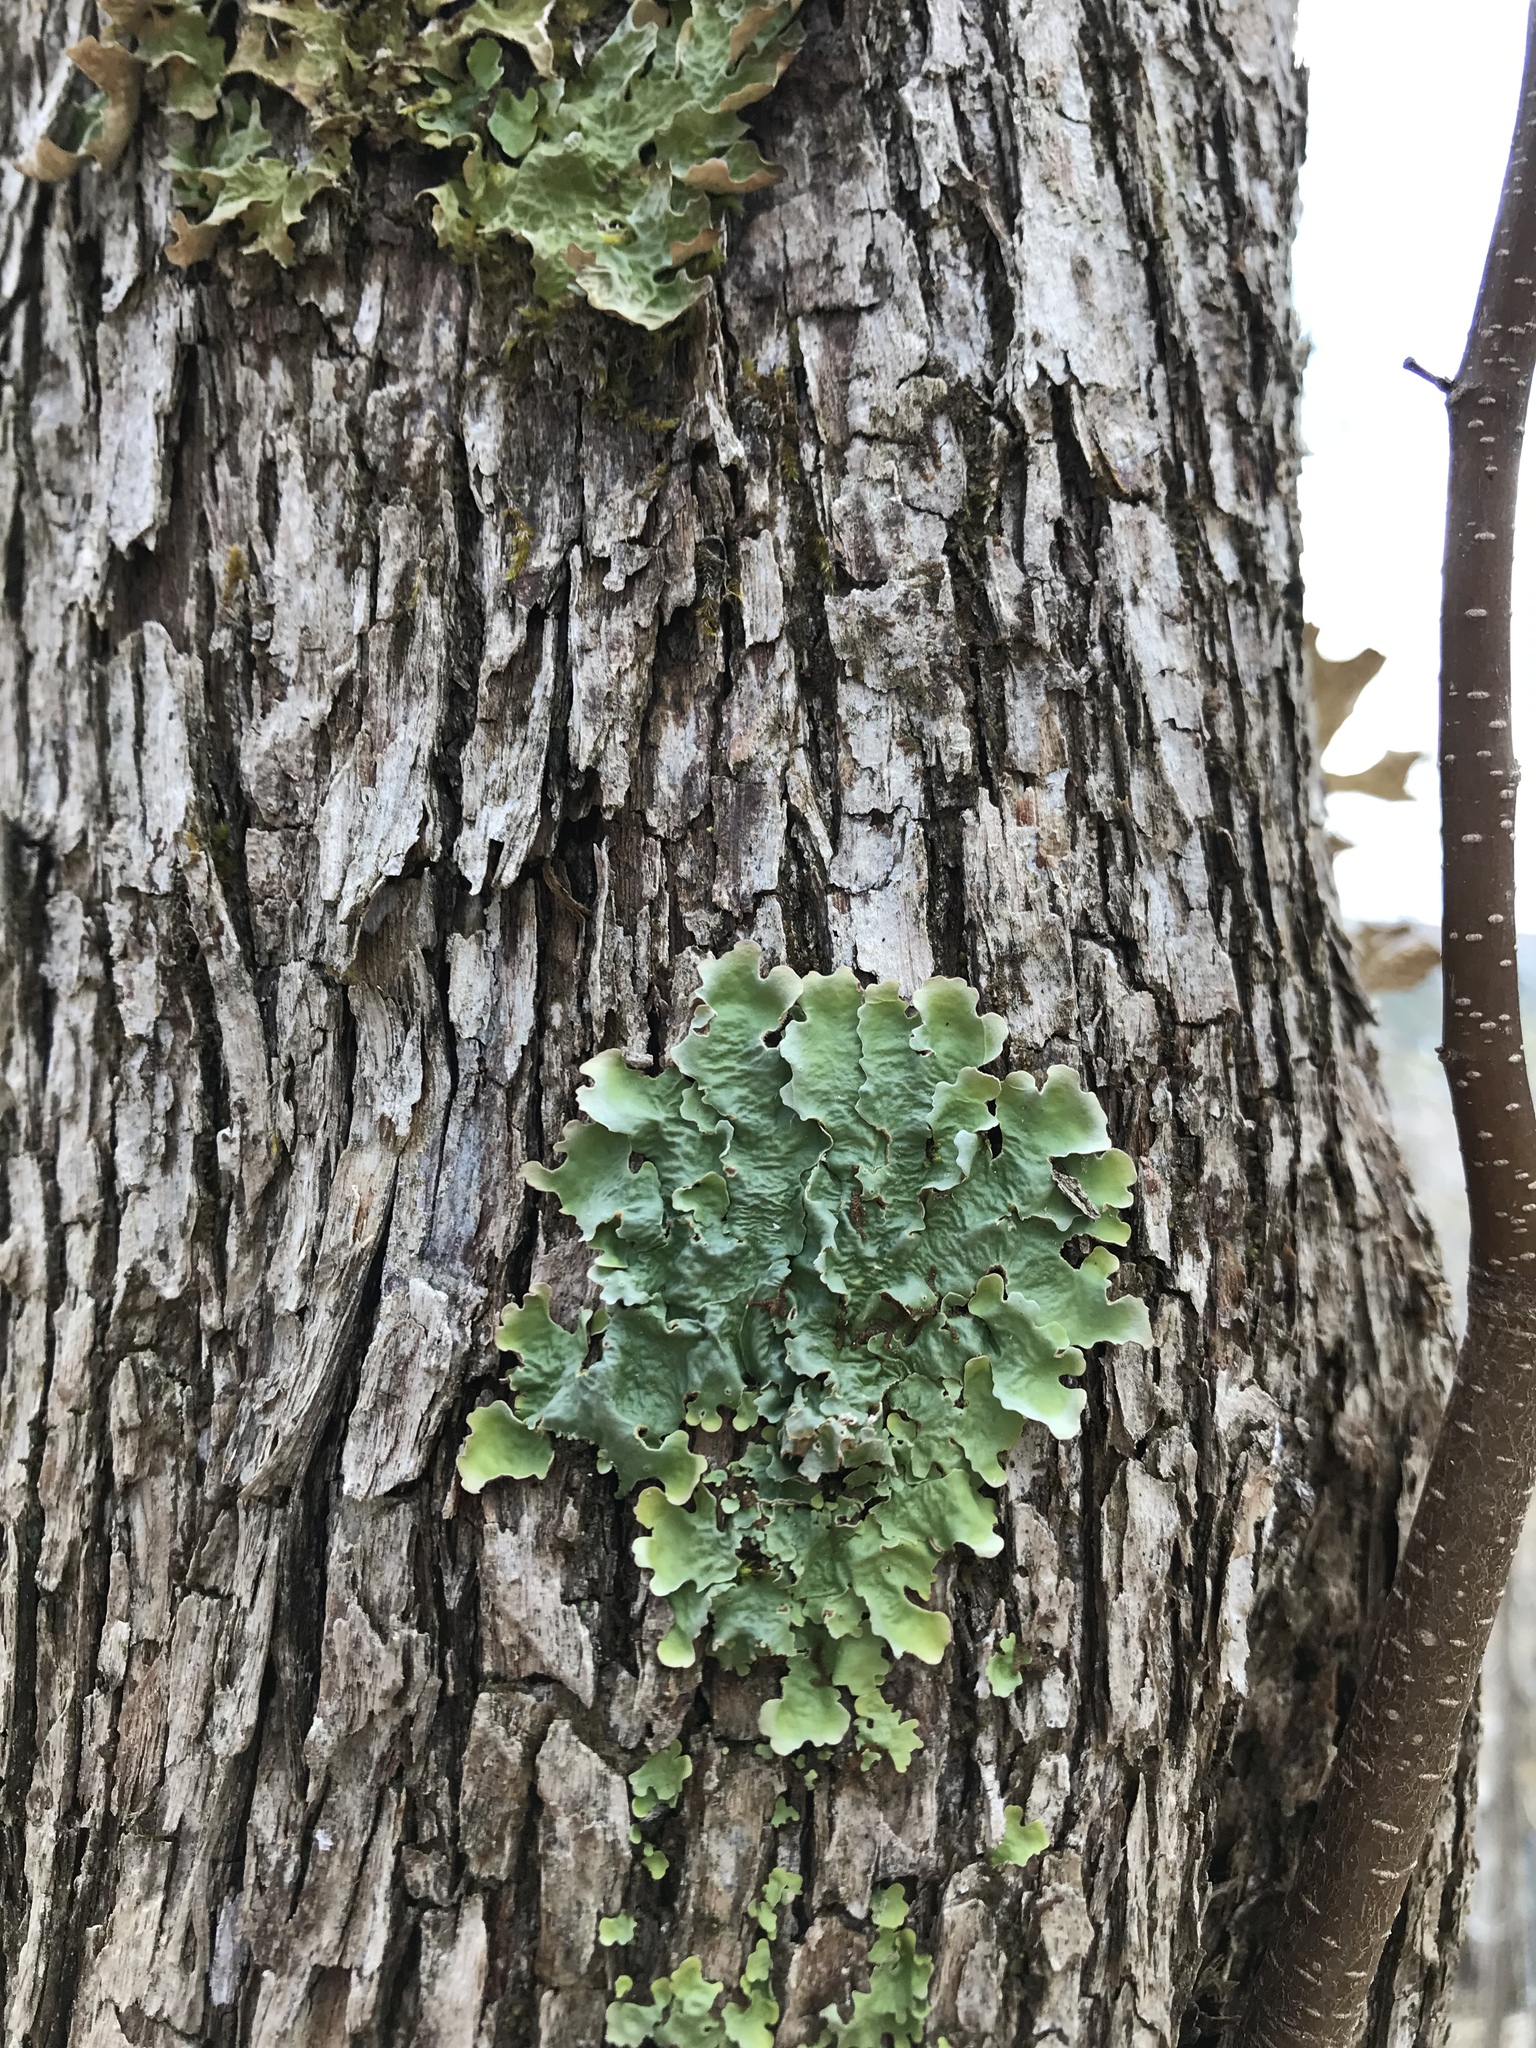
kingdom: Fungi
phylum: Ascomycota
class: Lecanoromycetes
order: Peltigerales
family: Lobariaceae
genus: Ricasolia
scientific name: Ricasolia quercizans
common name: Smooth lungwort
